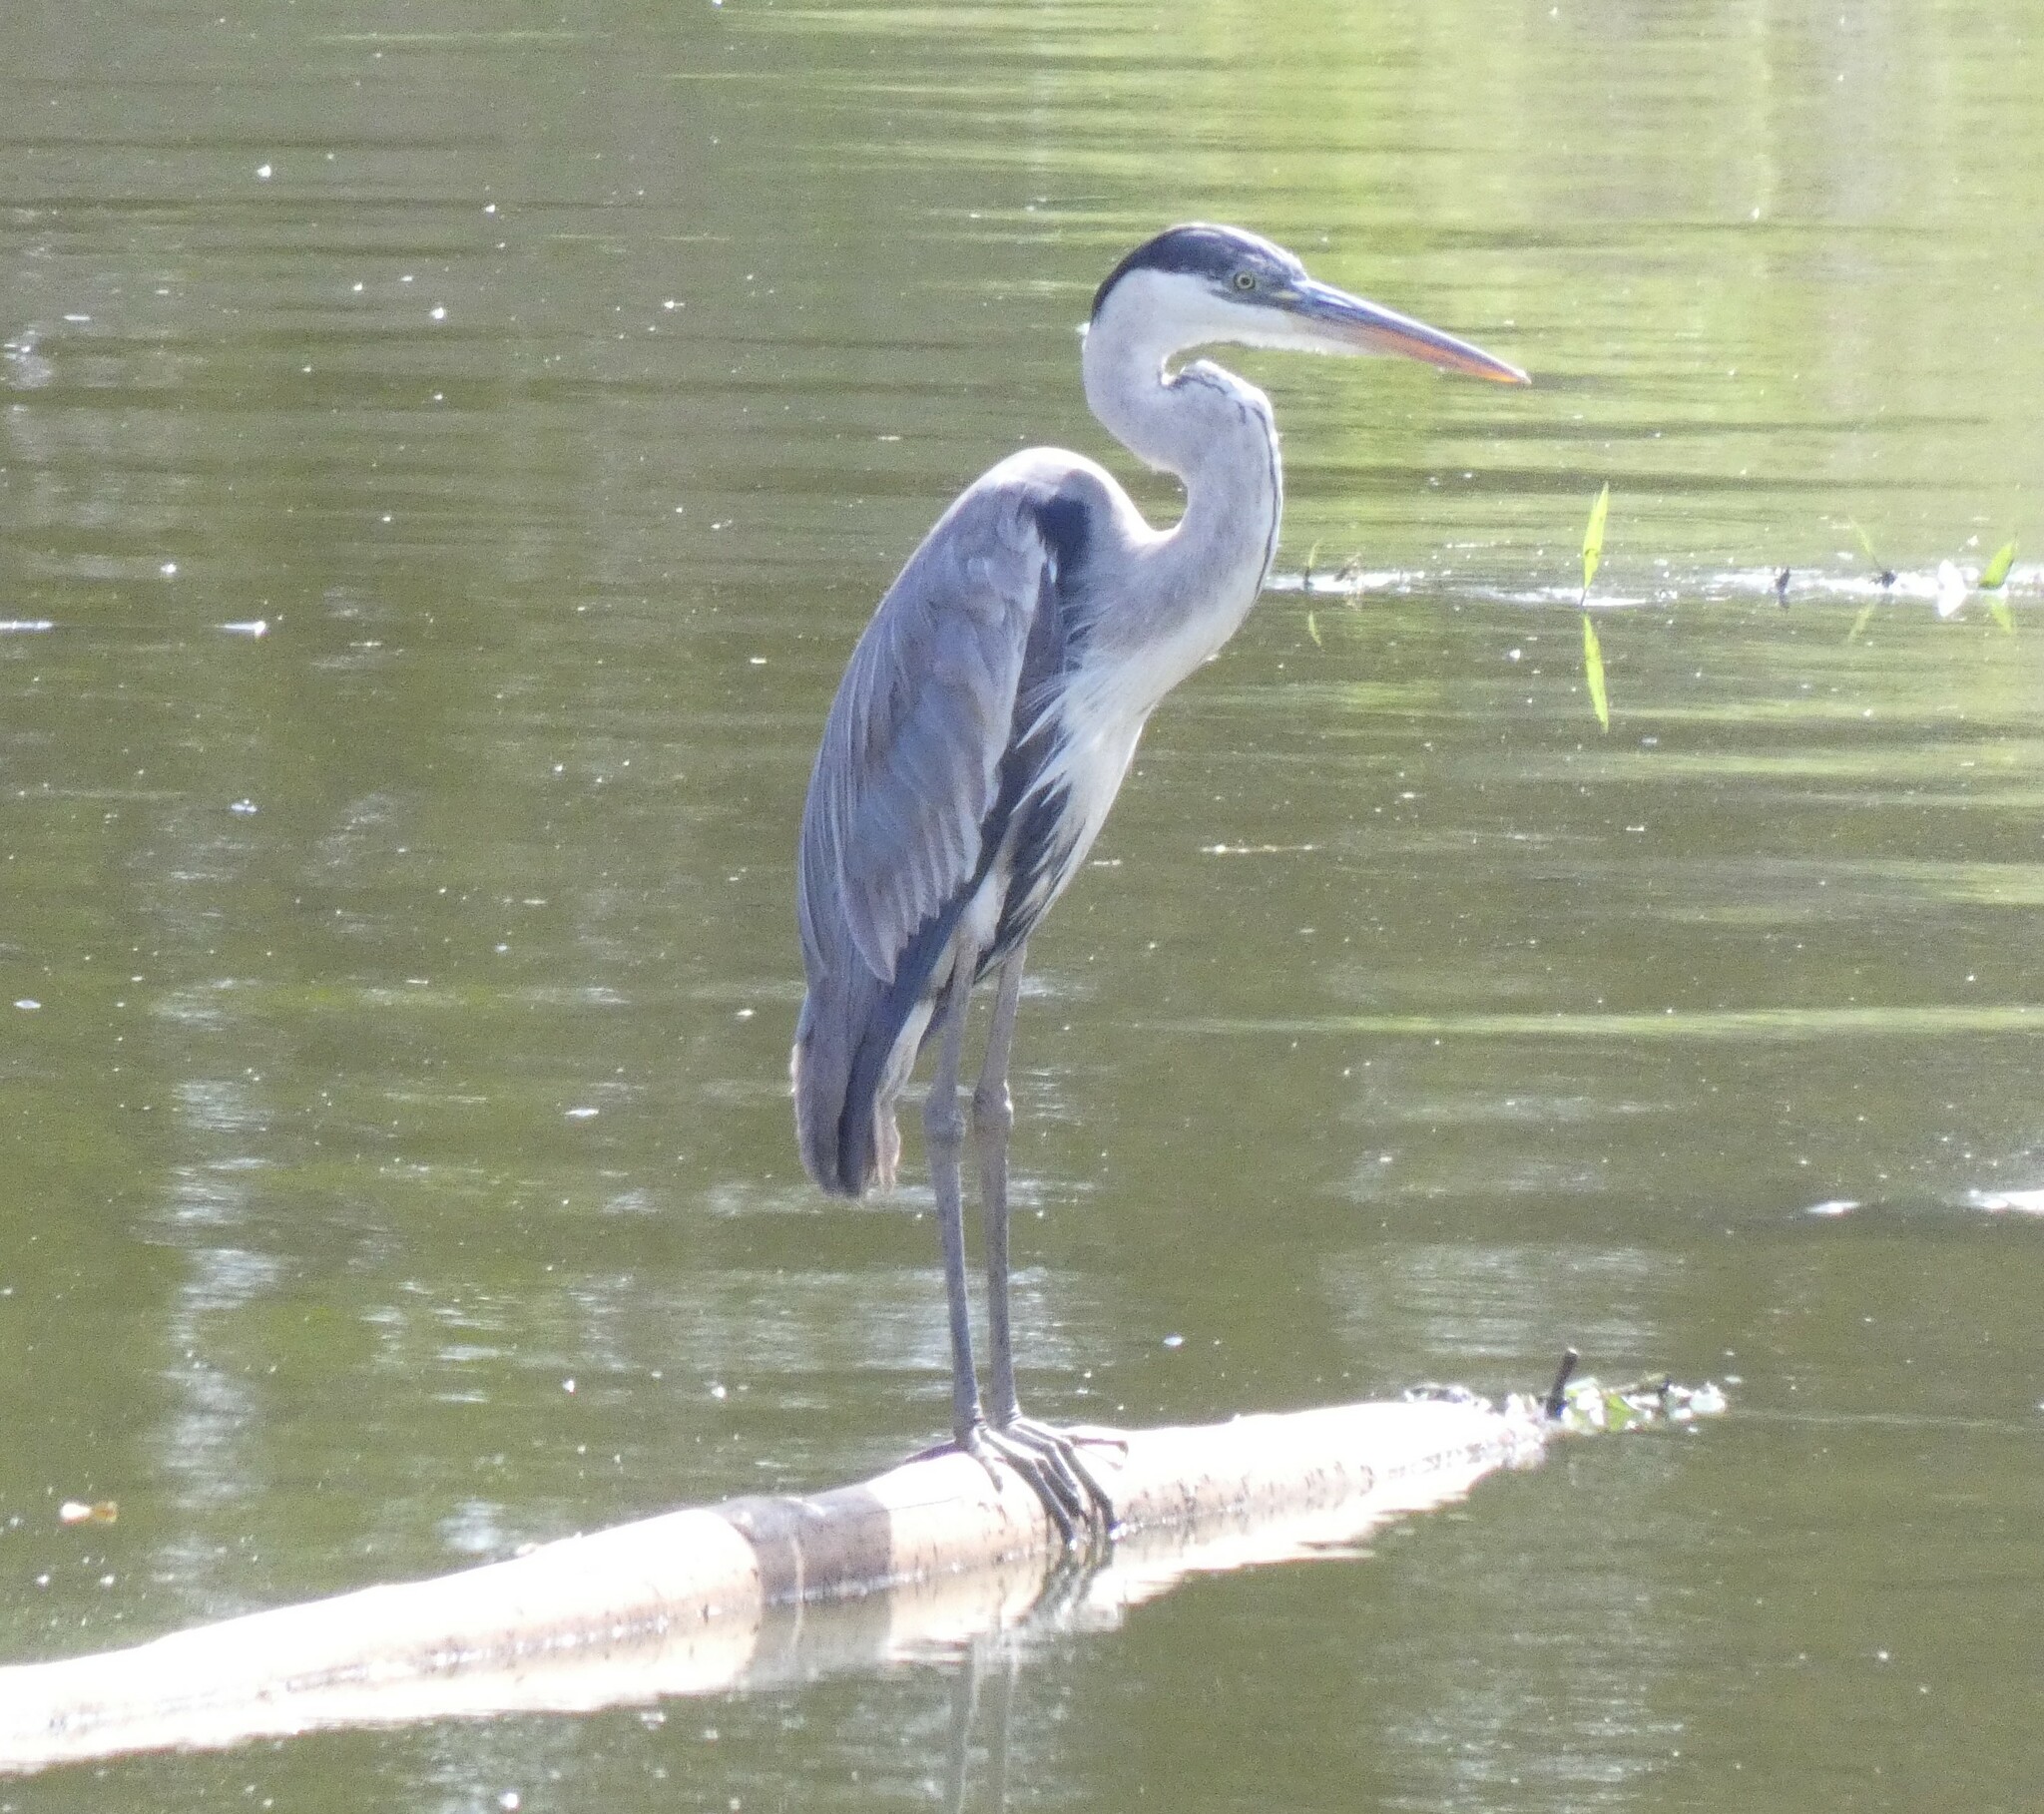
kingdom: Animalia
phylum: Chordata
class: Aves
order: Pelecaniformes
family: Ardeidae
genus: Ardea
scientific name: Ardea cocoi
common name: Cocoi heron
